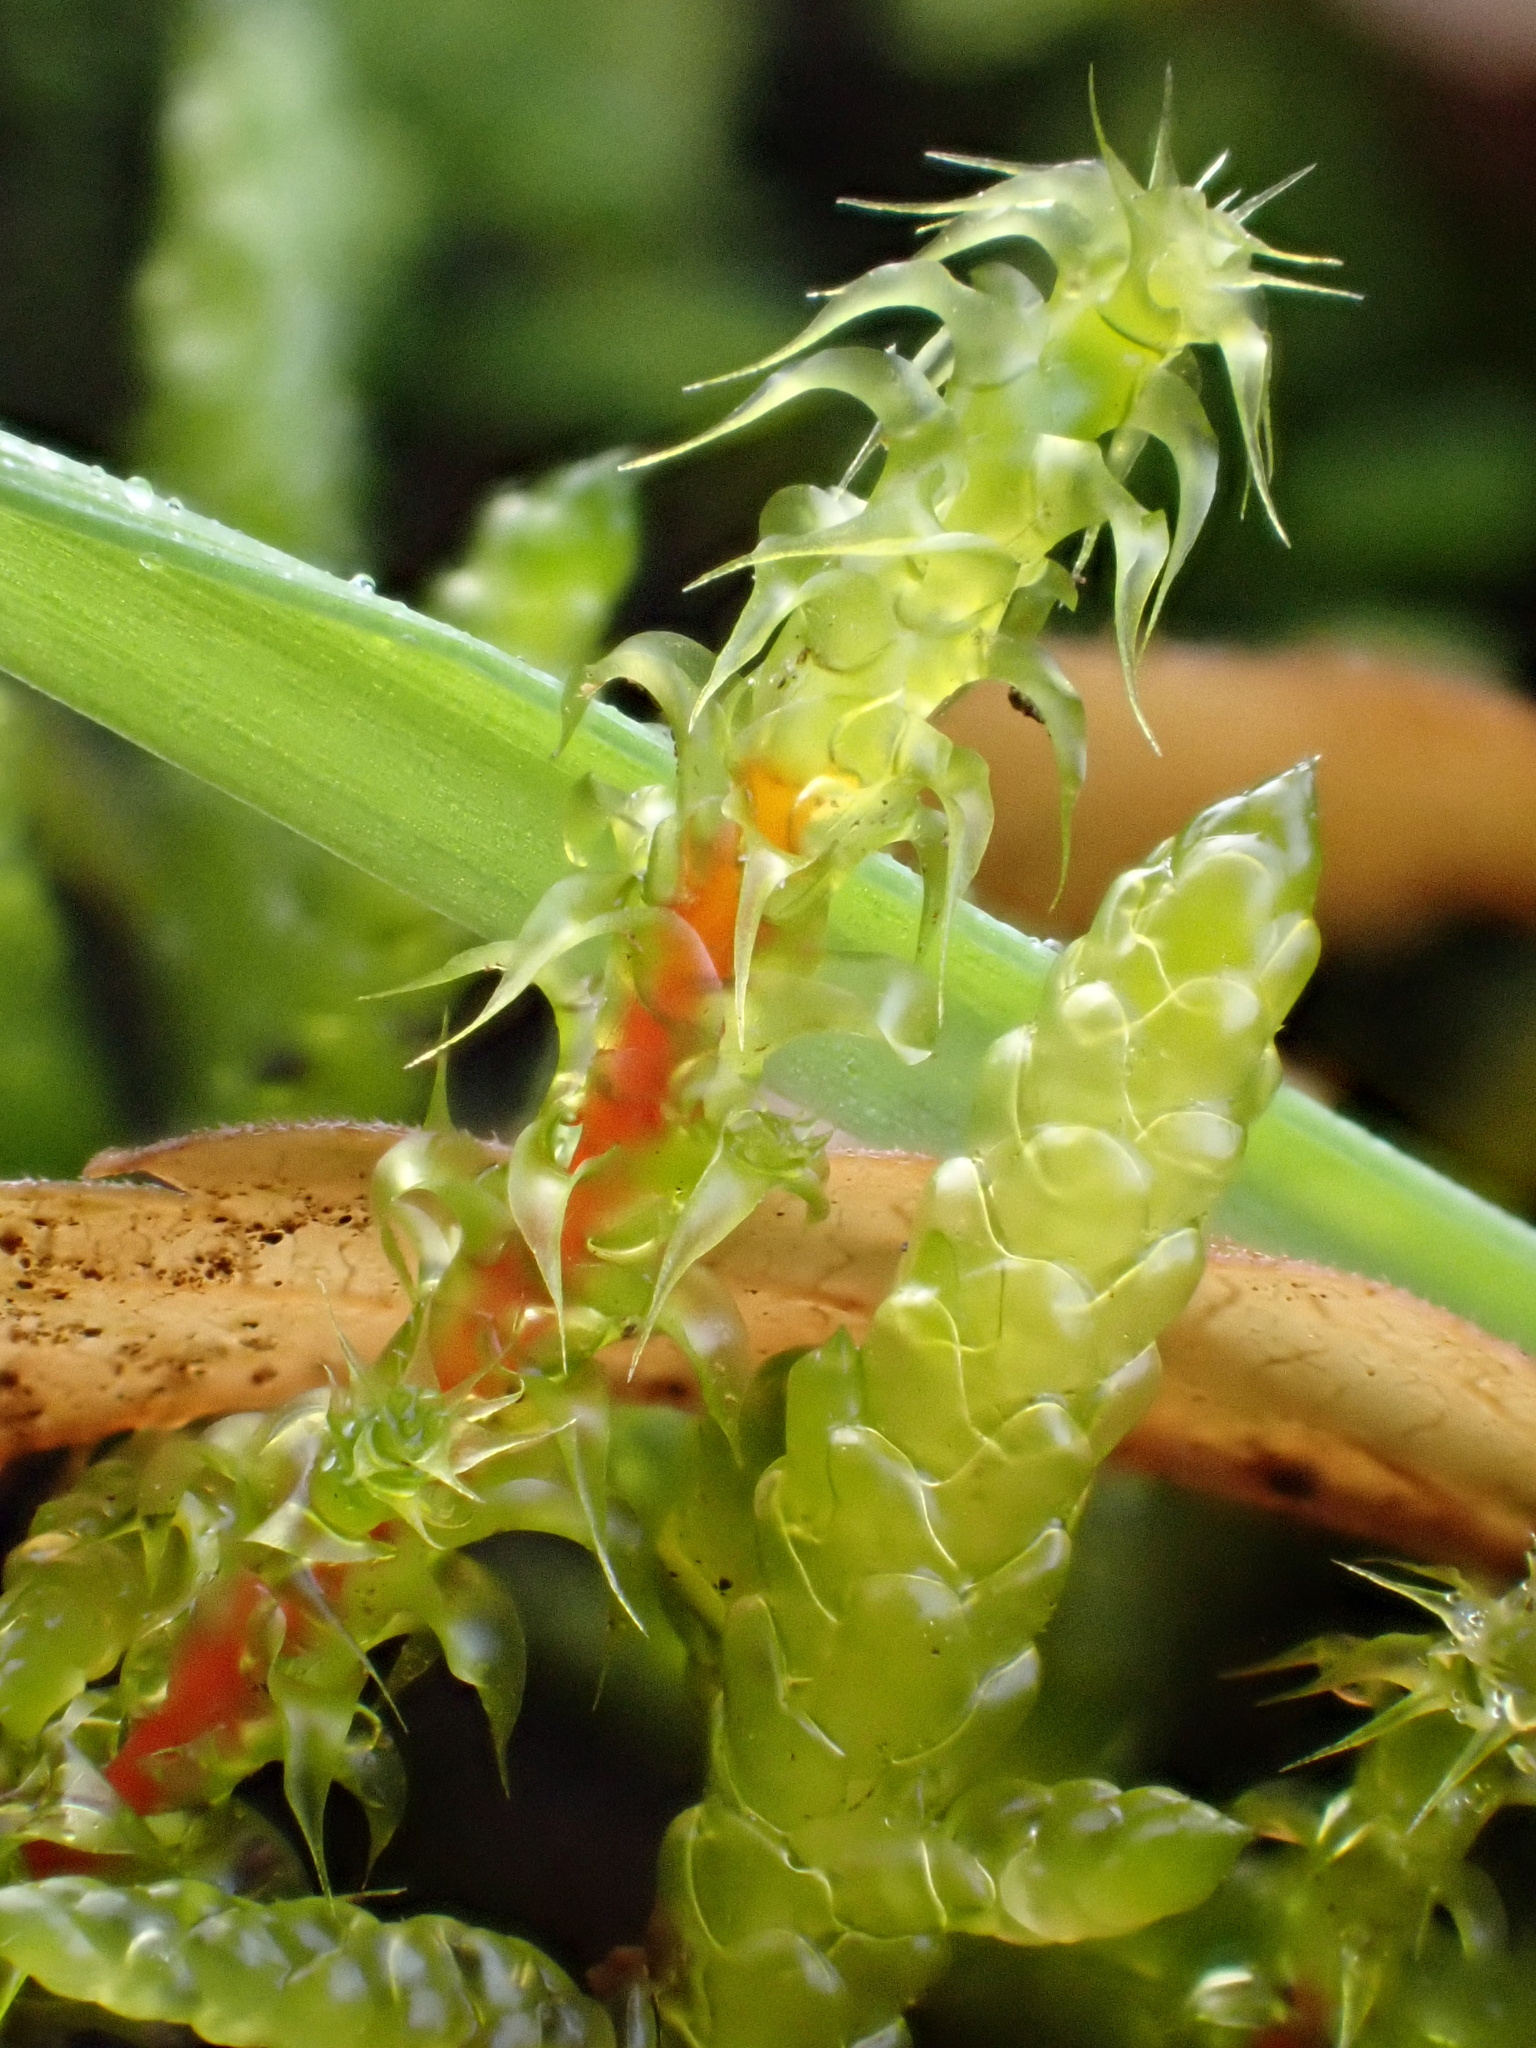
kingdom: Plantae
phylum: Bryophyta
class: Bryopsida
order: Hypnales
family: Hylocomiaceae
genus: Rhytidiadelphus
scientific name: Rhytidiadelphus squarrosus
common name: Springy turf-moss
